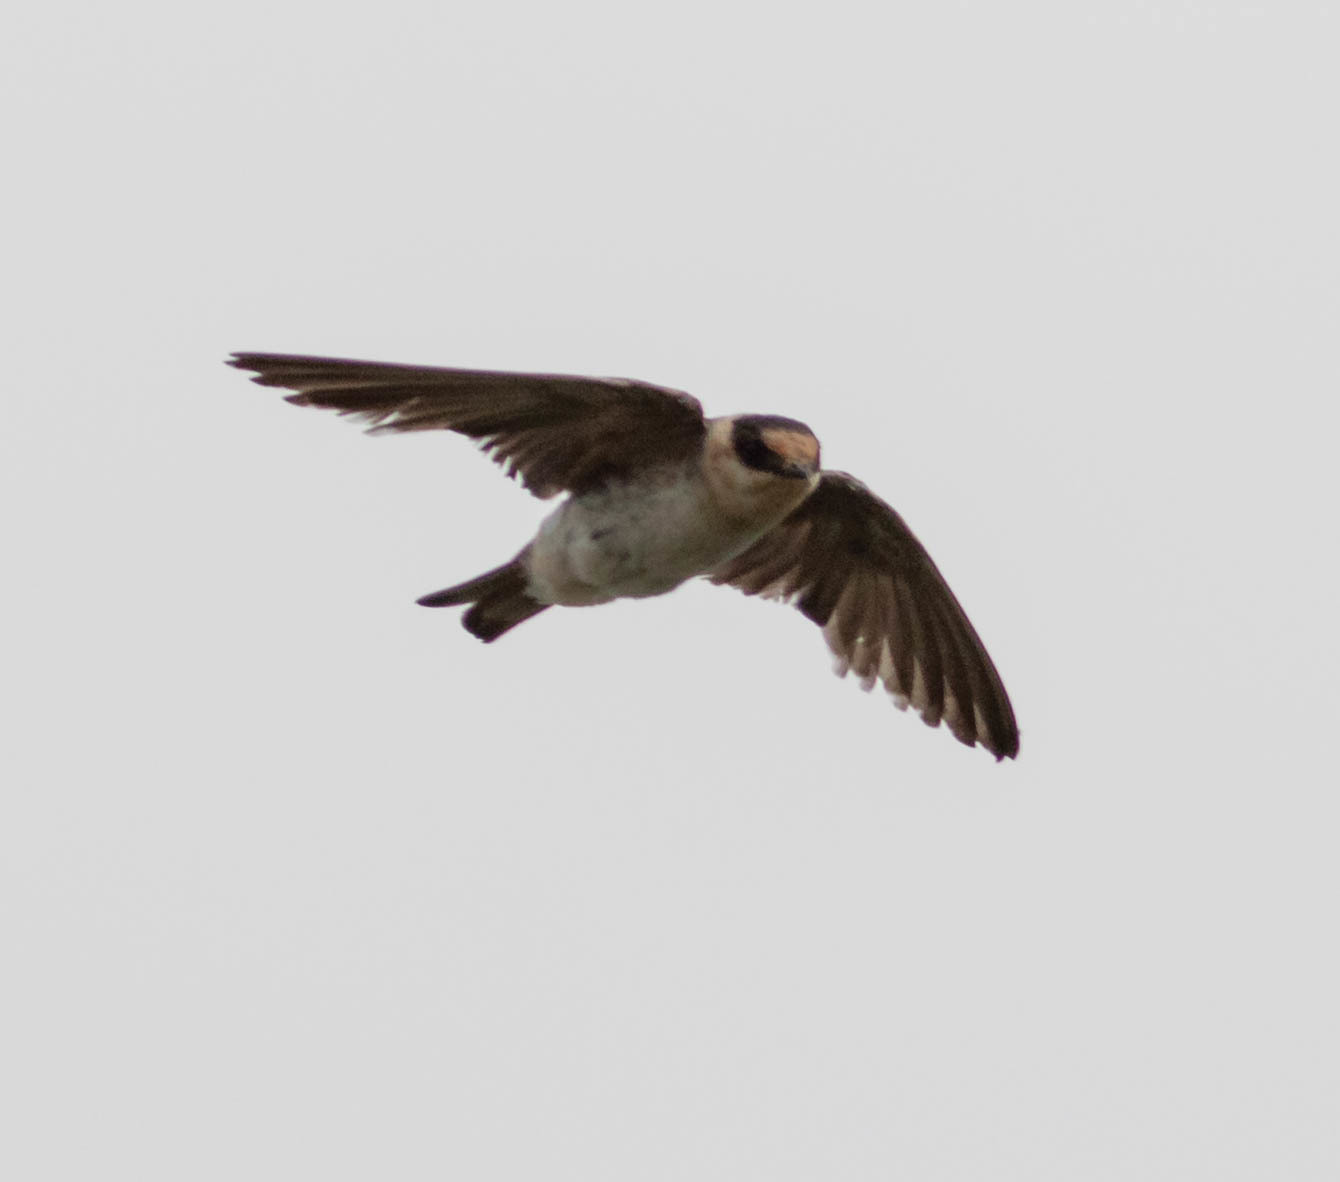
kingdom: Animalia
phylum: Chordata
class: Aves
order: Passeriformes
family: Hirundinidae
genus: Petrochelidon
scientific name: Petrochelidon fulva
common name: Cave swallow
